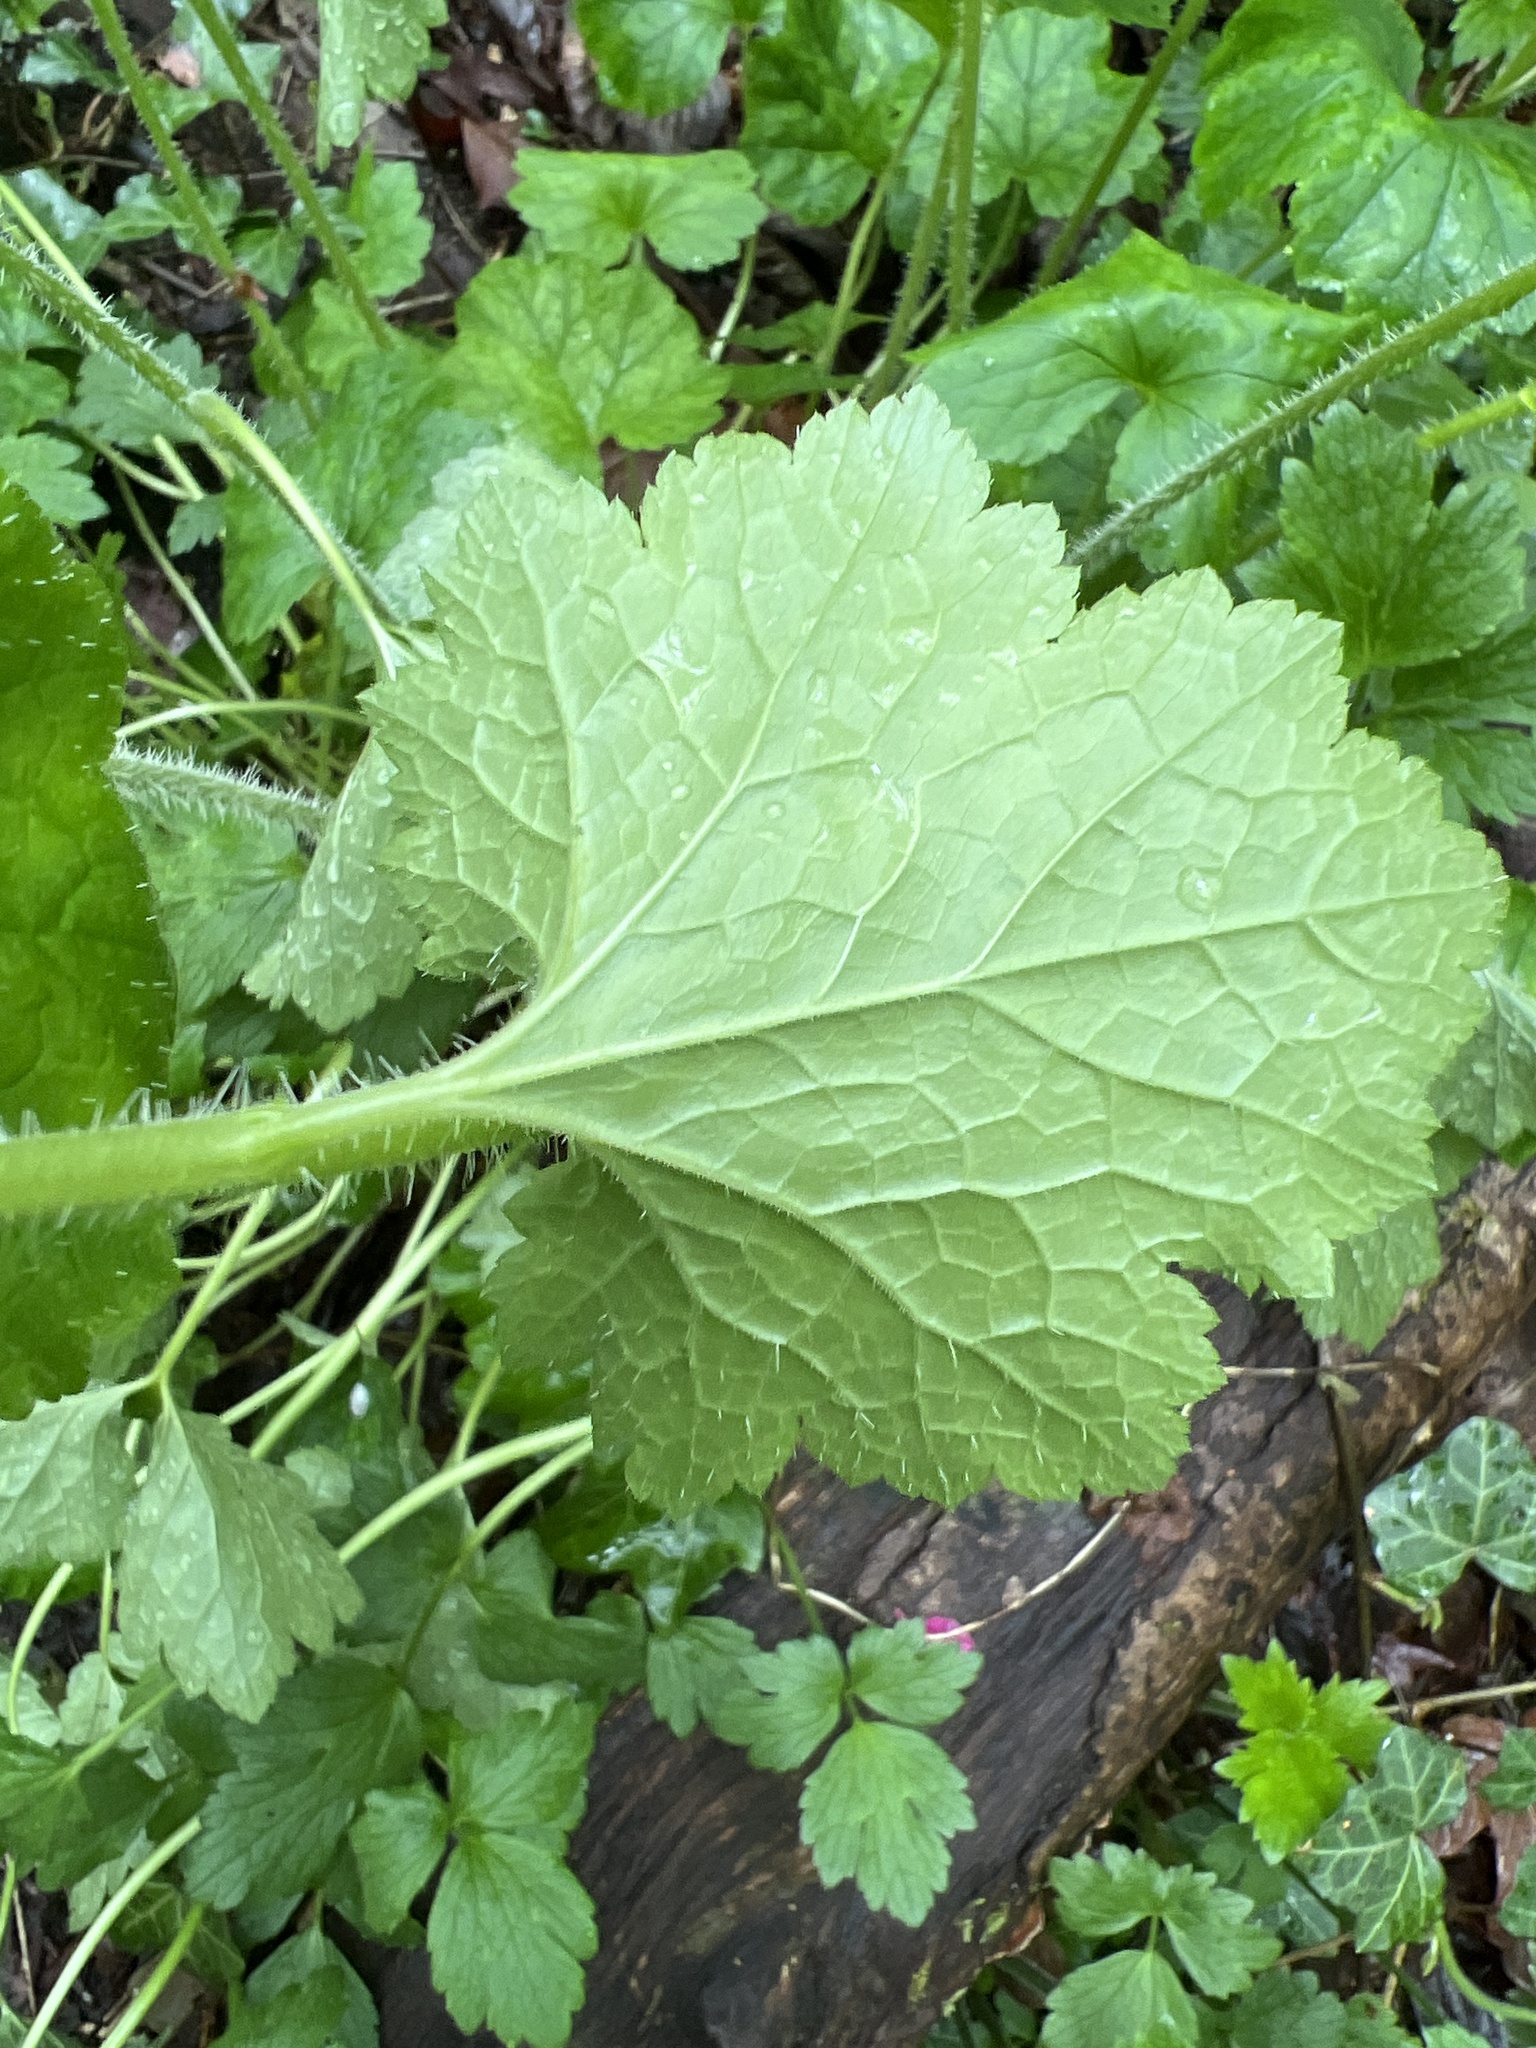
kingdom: Plantae
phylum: Tracheophyta
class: Magnoliopsida
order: Saxifragales
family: Saxifragaceae
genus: Tellima
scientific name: Tellima grandiflora
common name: Fringecups
